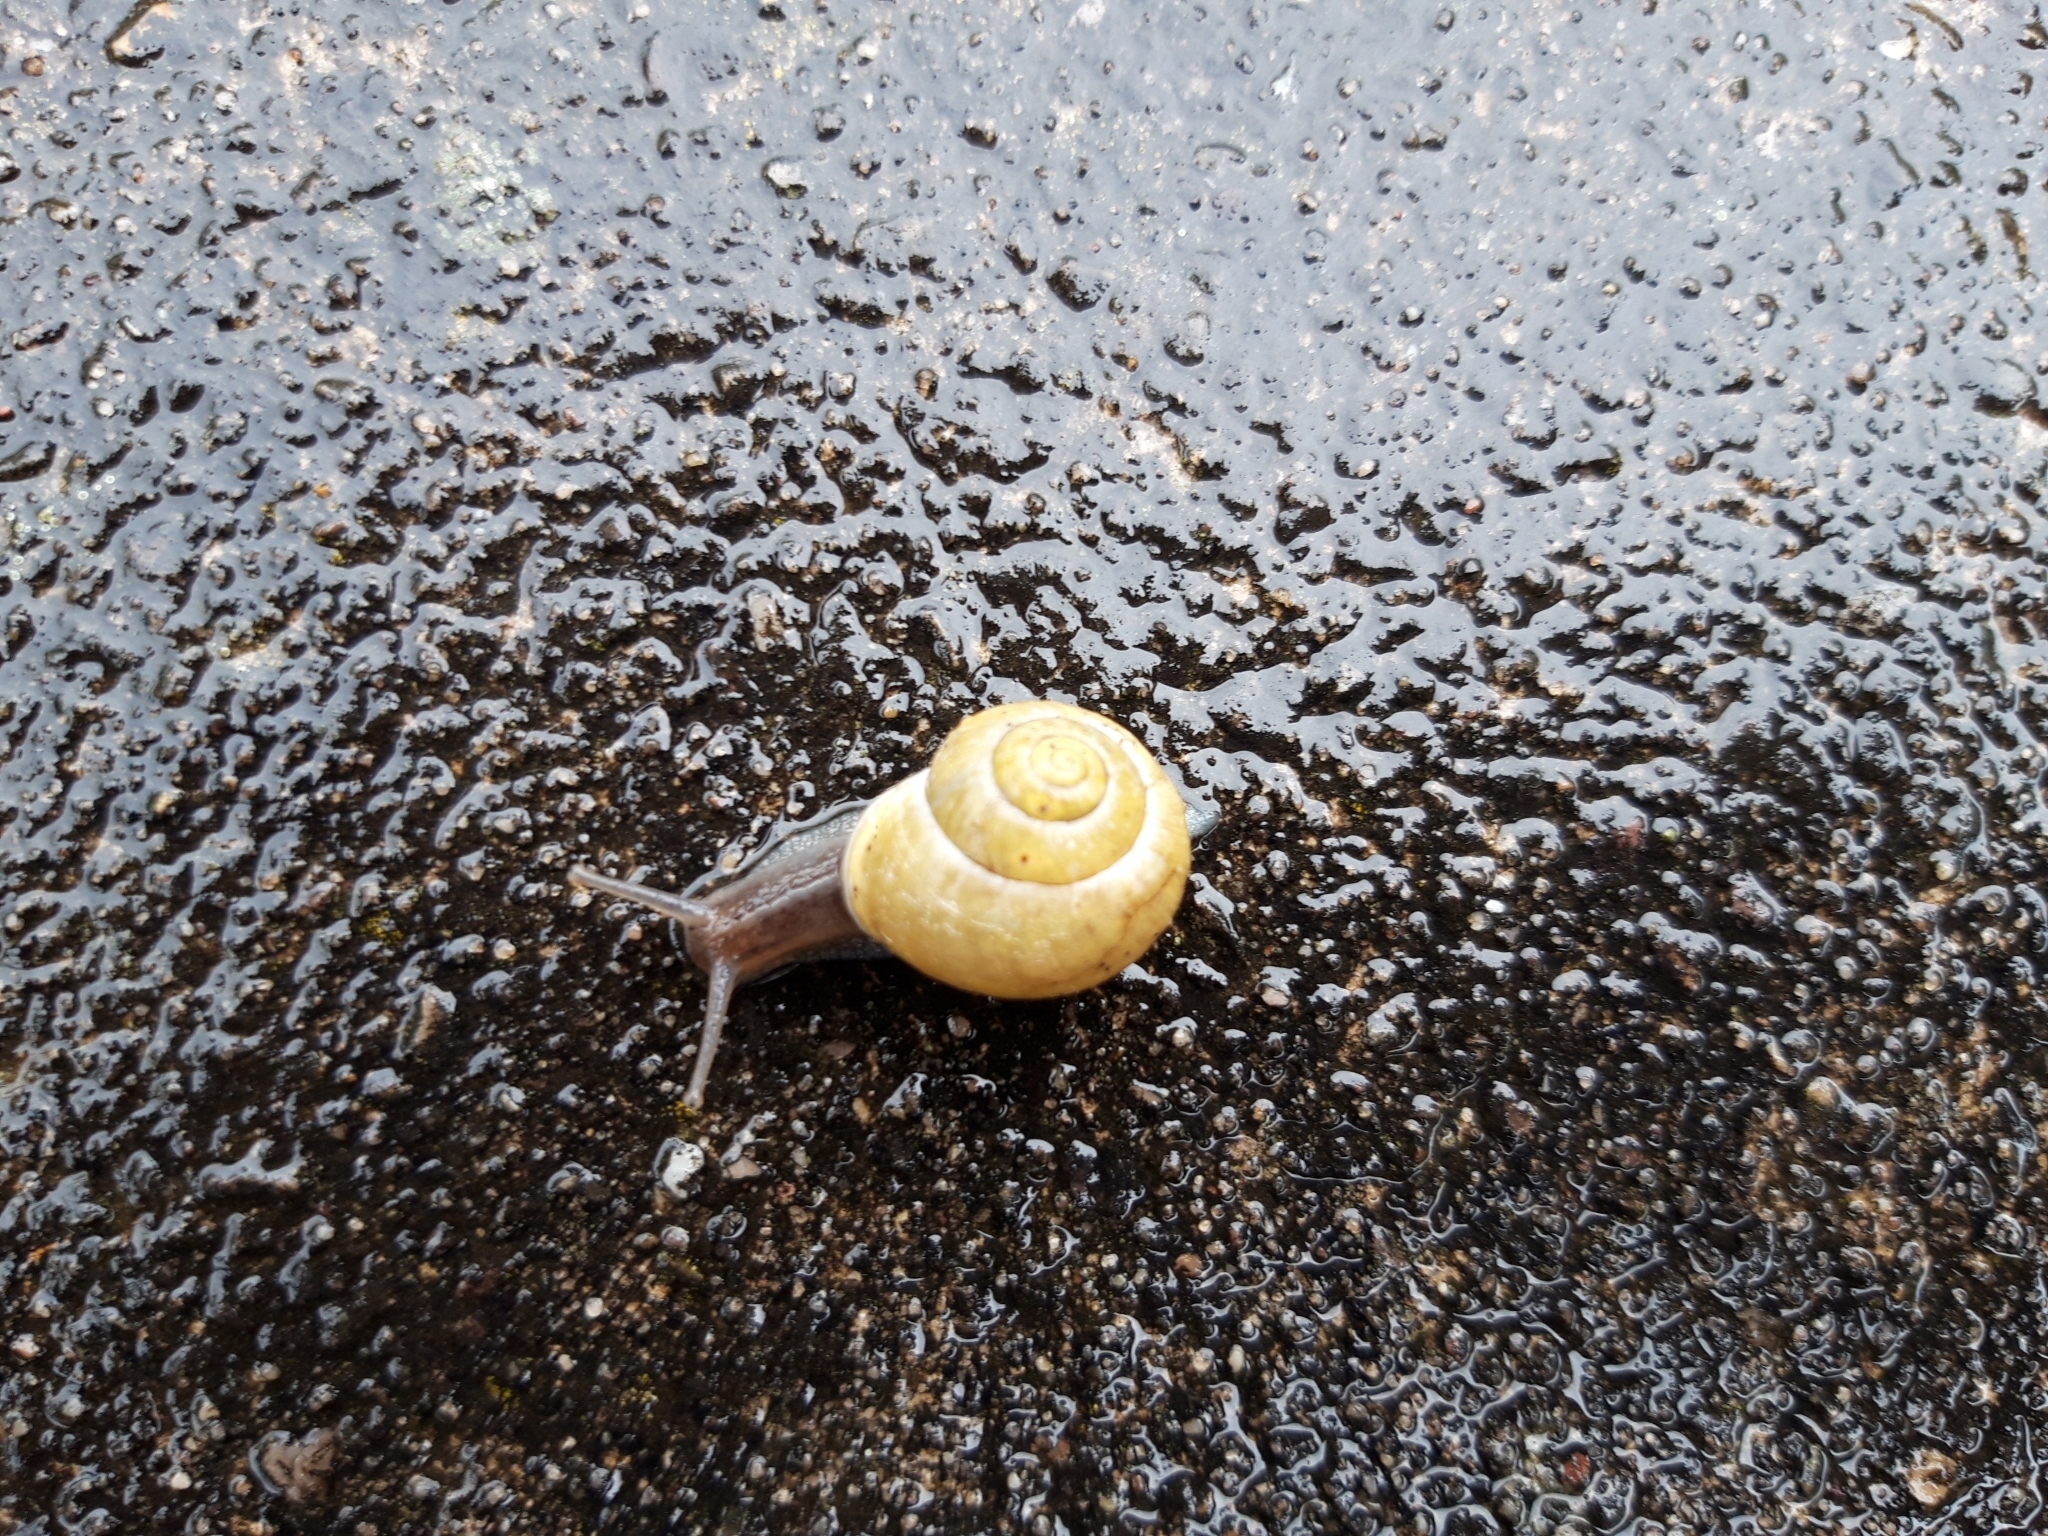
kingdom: Animalia
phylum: Mollusca
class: Gastropoda
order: Stylommatophora
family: Helicidae
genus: Cepaea
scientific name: Cepaea hortensis
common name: White-lip gardensnail
